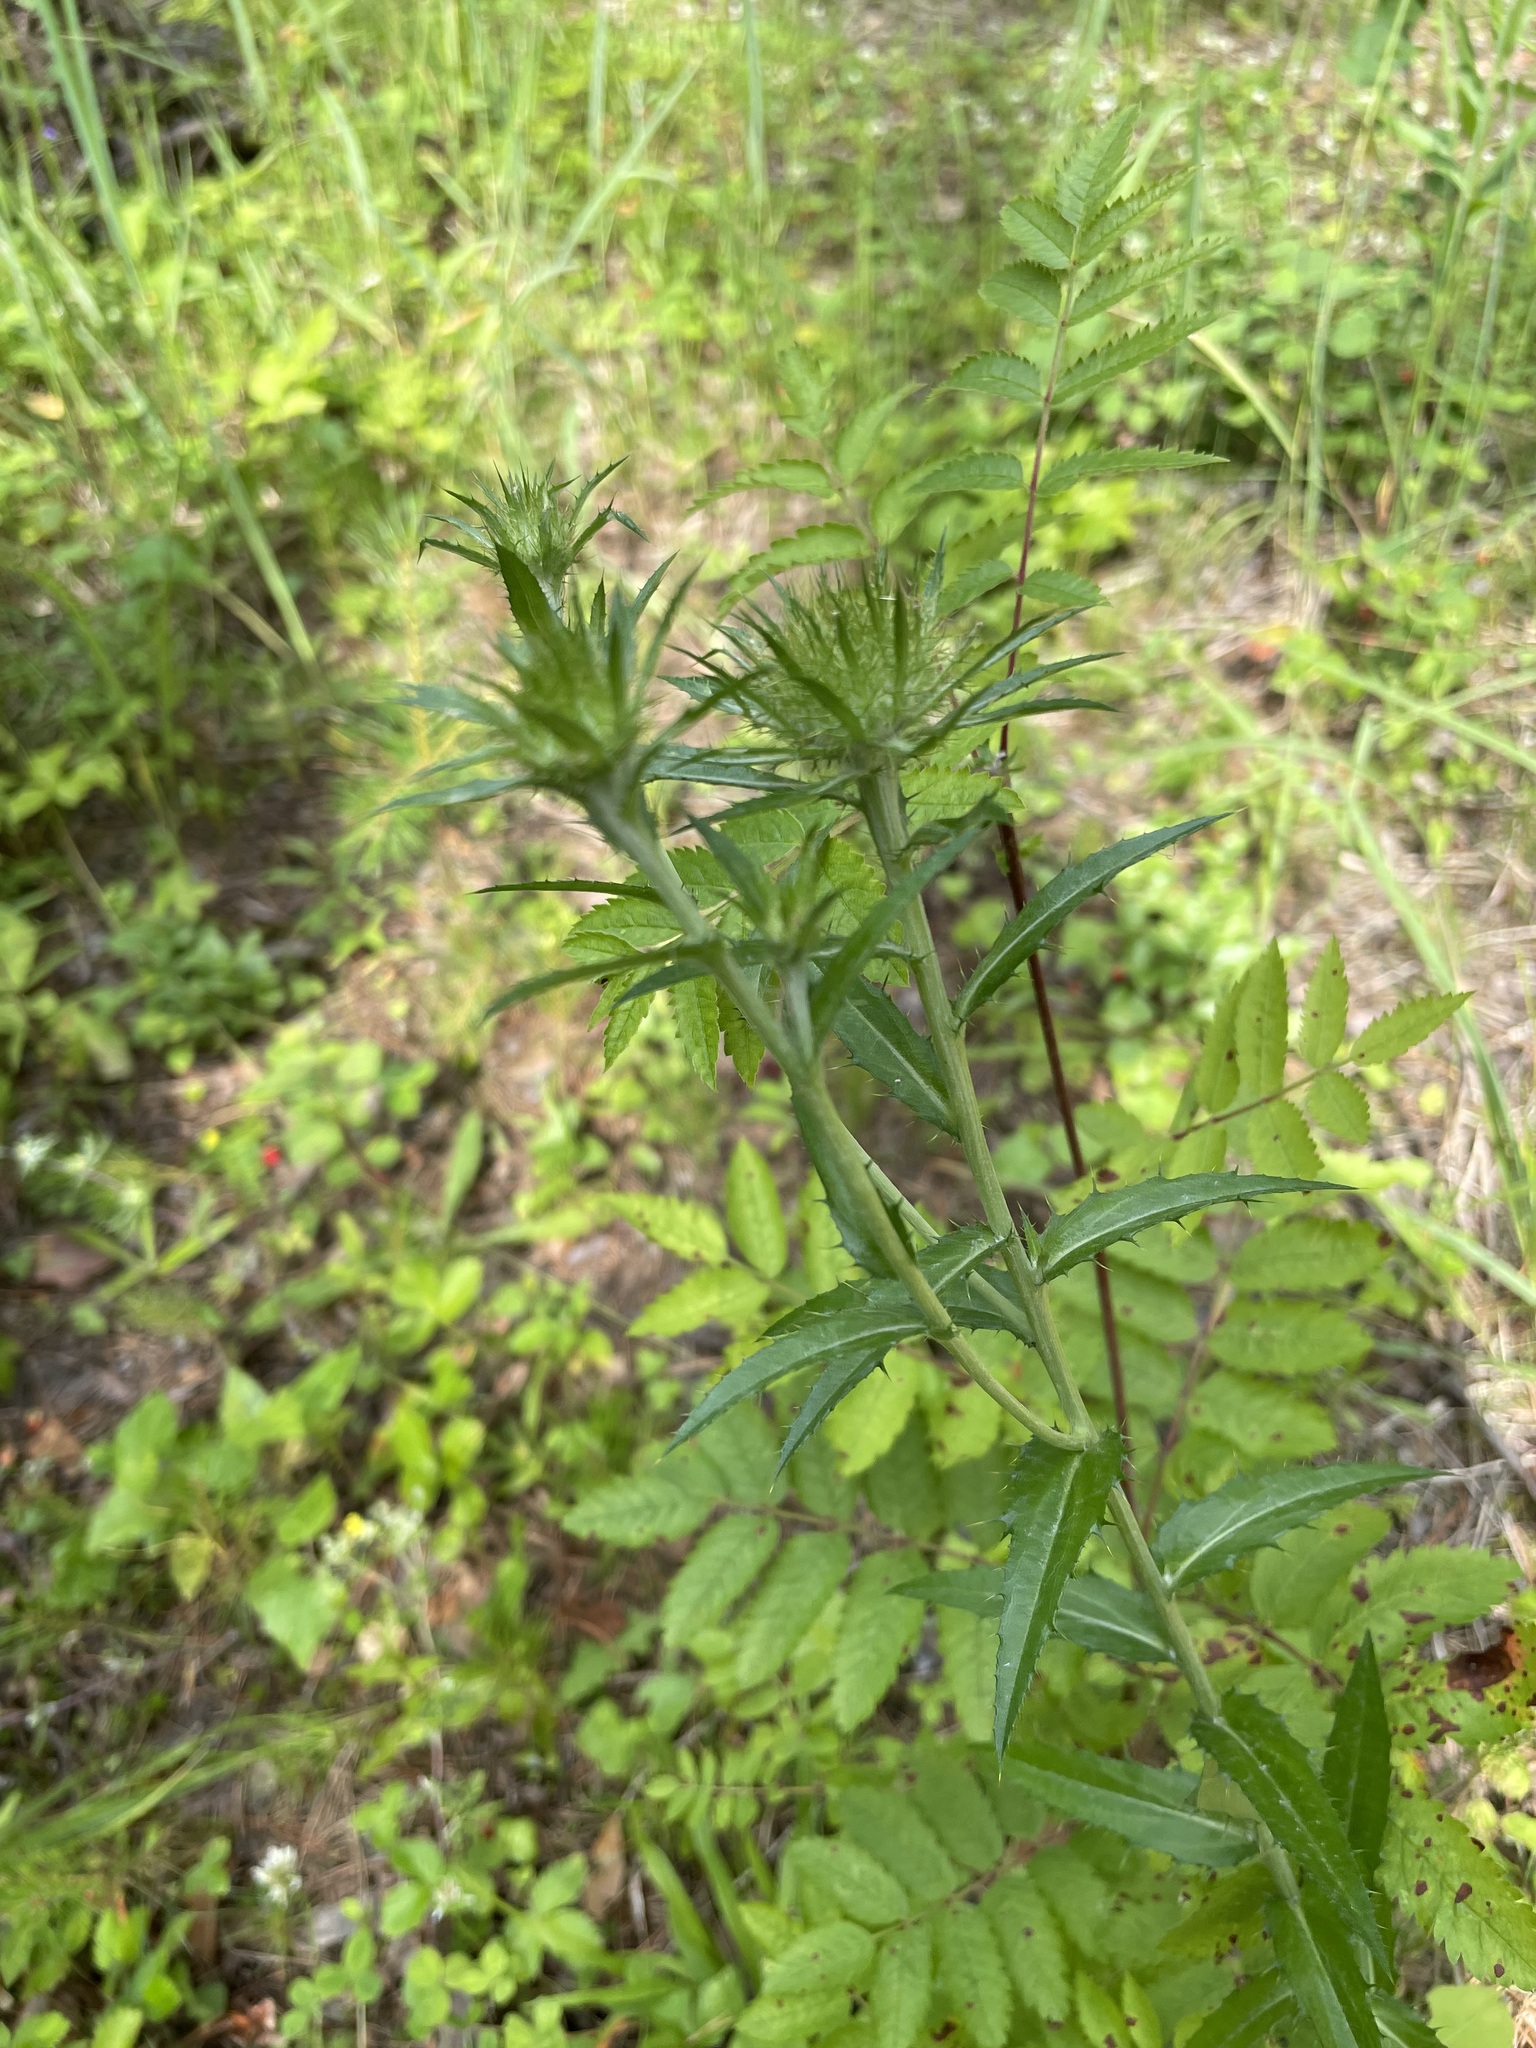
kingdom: Plantae
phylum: Tracheophyta
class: Magnoliopsida
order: Asterales
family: Asteraceae
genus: Carlina
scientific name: Carlina biebersteinii
